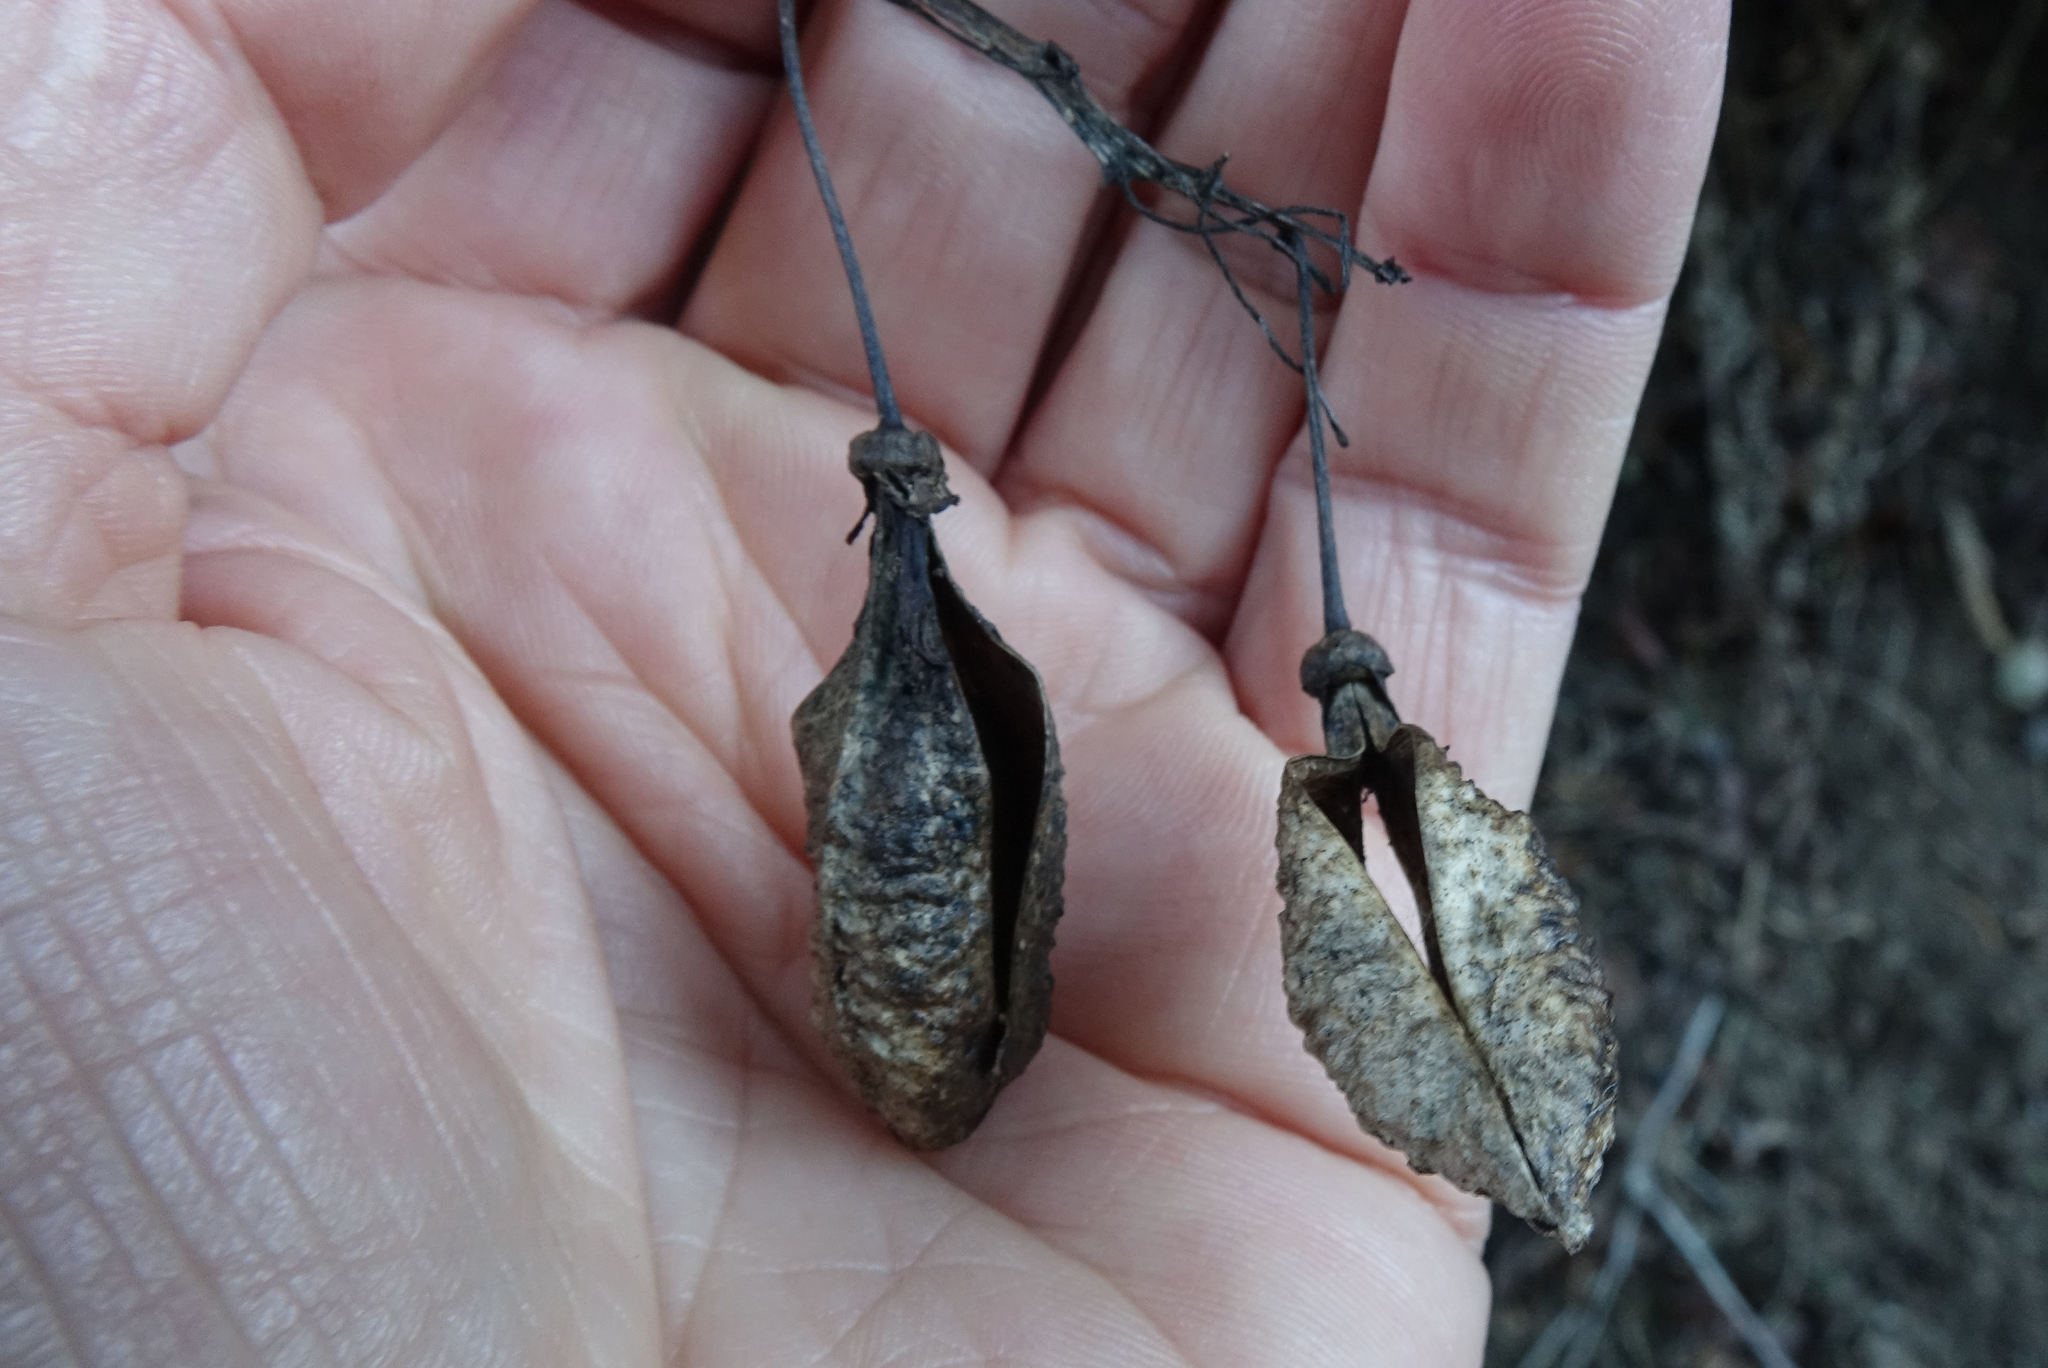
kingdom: Plantae
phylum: Tracheophyta
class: Magnoliopsida
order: Lamiales
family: Bignoniaceae
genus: Eccremocarpus
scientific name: Eccremocarpus scaber
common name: Chilean glory-flower
